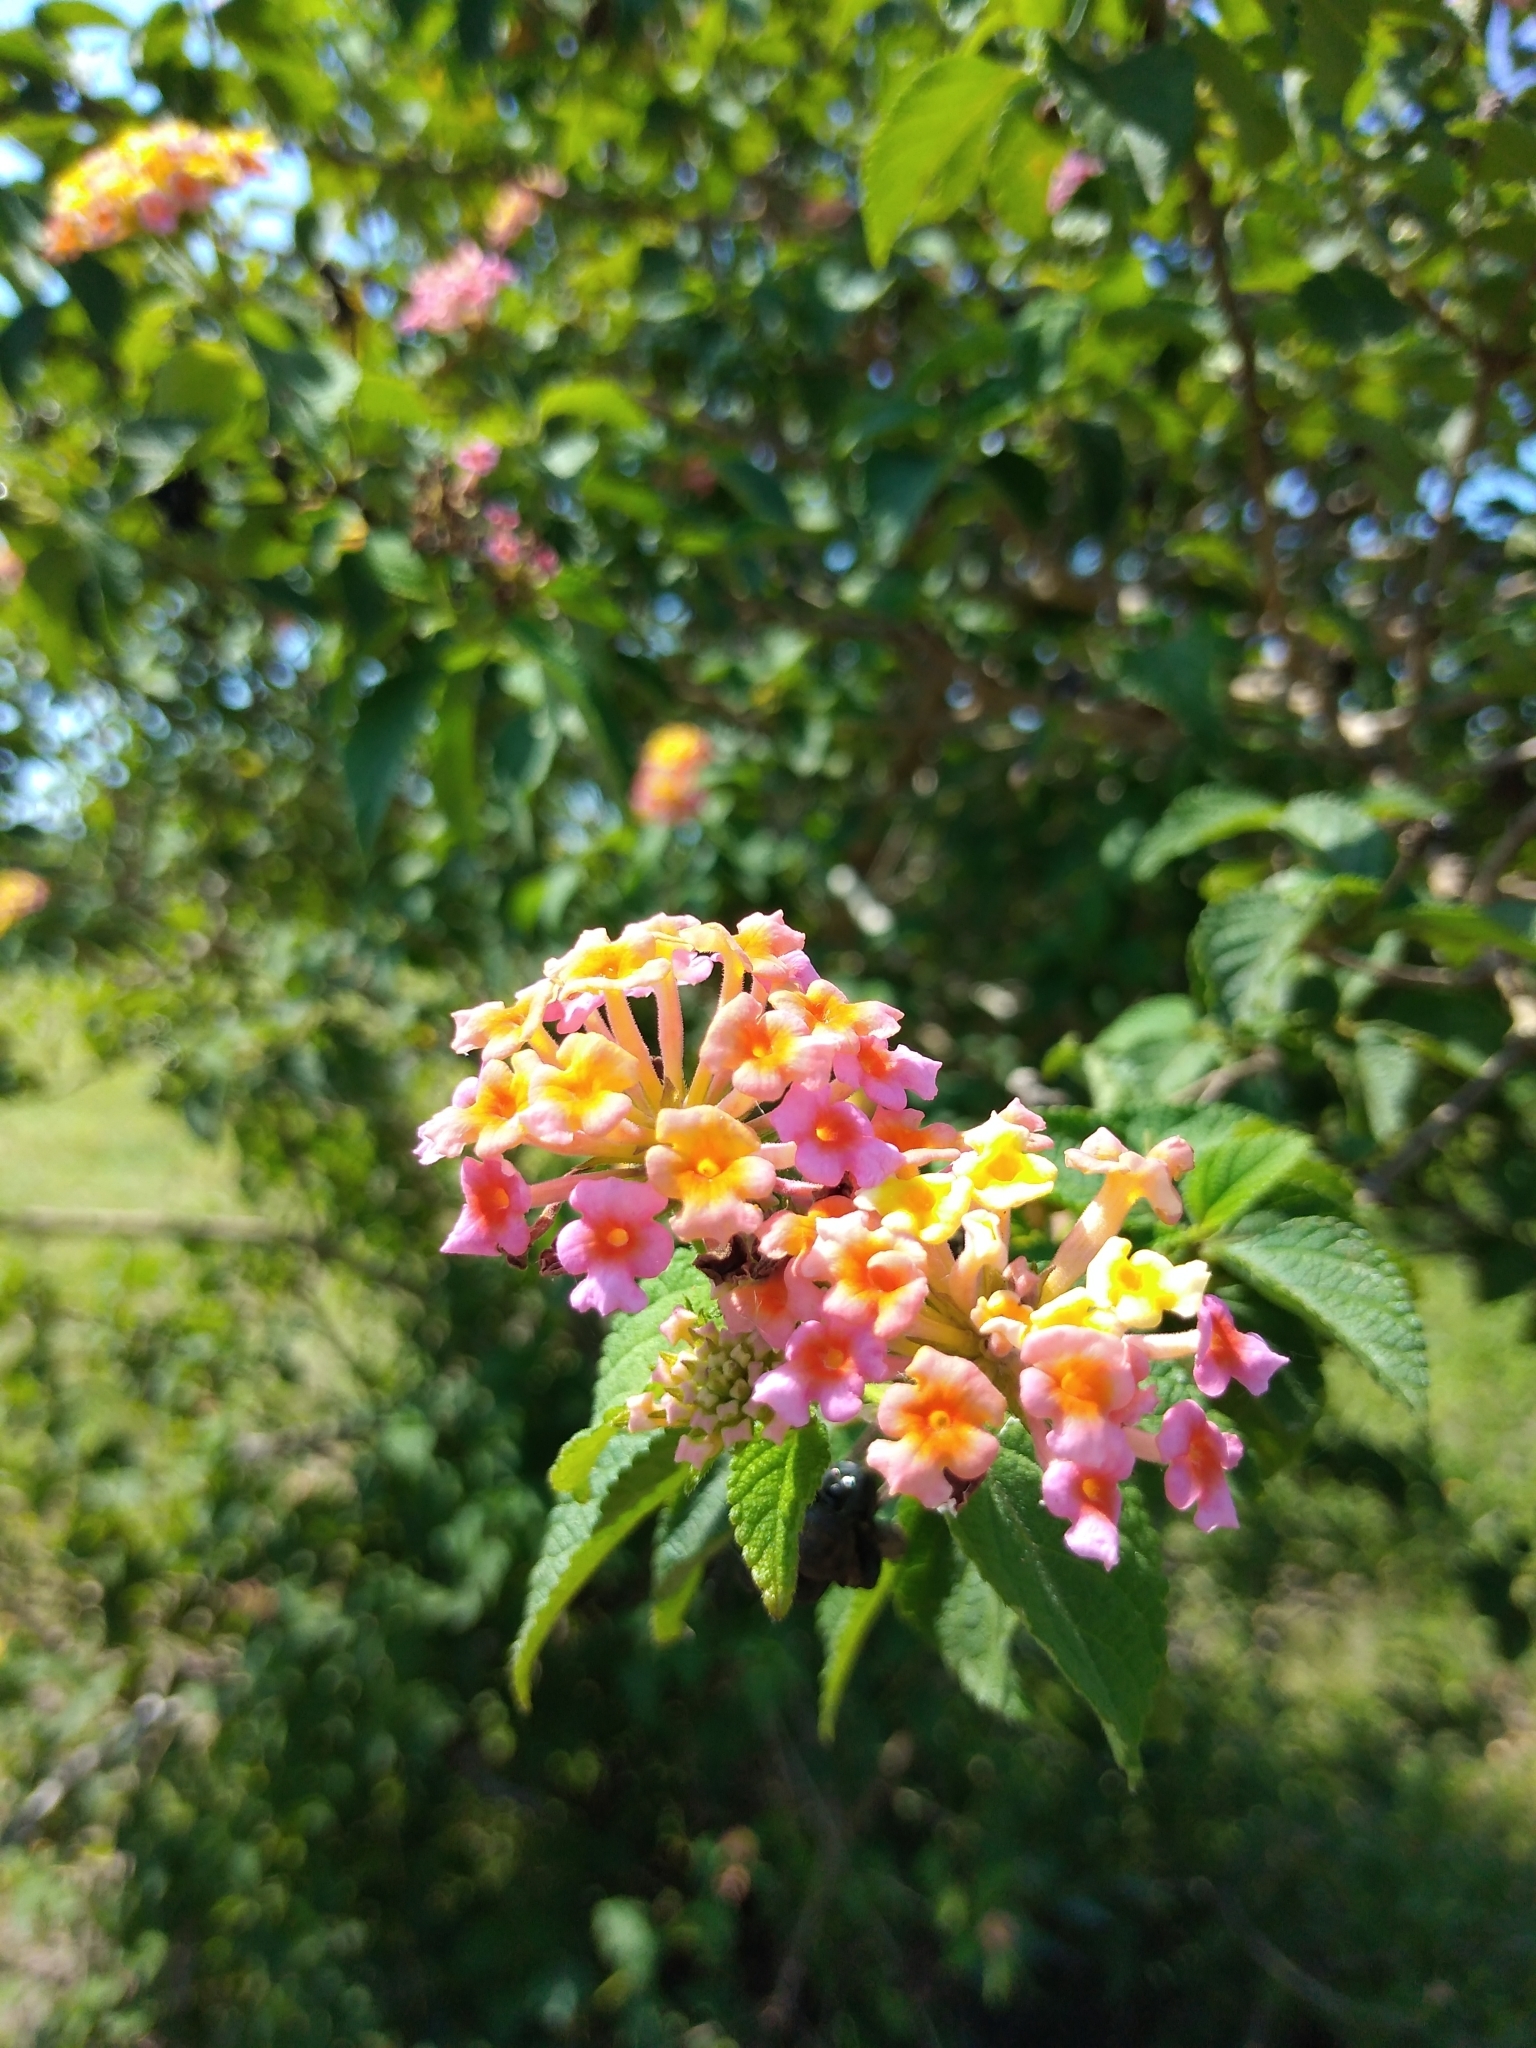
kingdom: Plantae
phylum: Tracheophyta
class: Magnoliopsida
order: Lamiales
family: Verbenaceae
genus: Lantana
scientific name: Lantana camara
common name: Lantana
